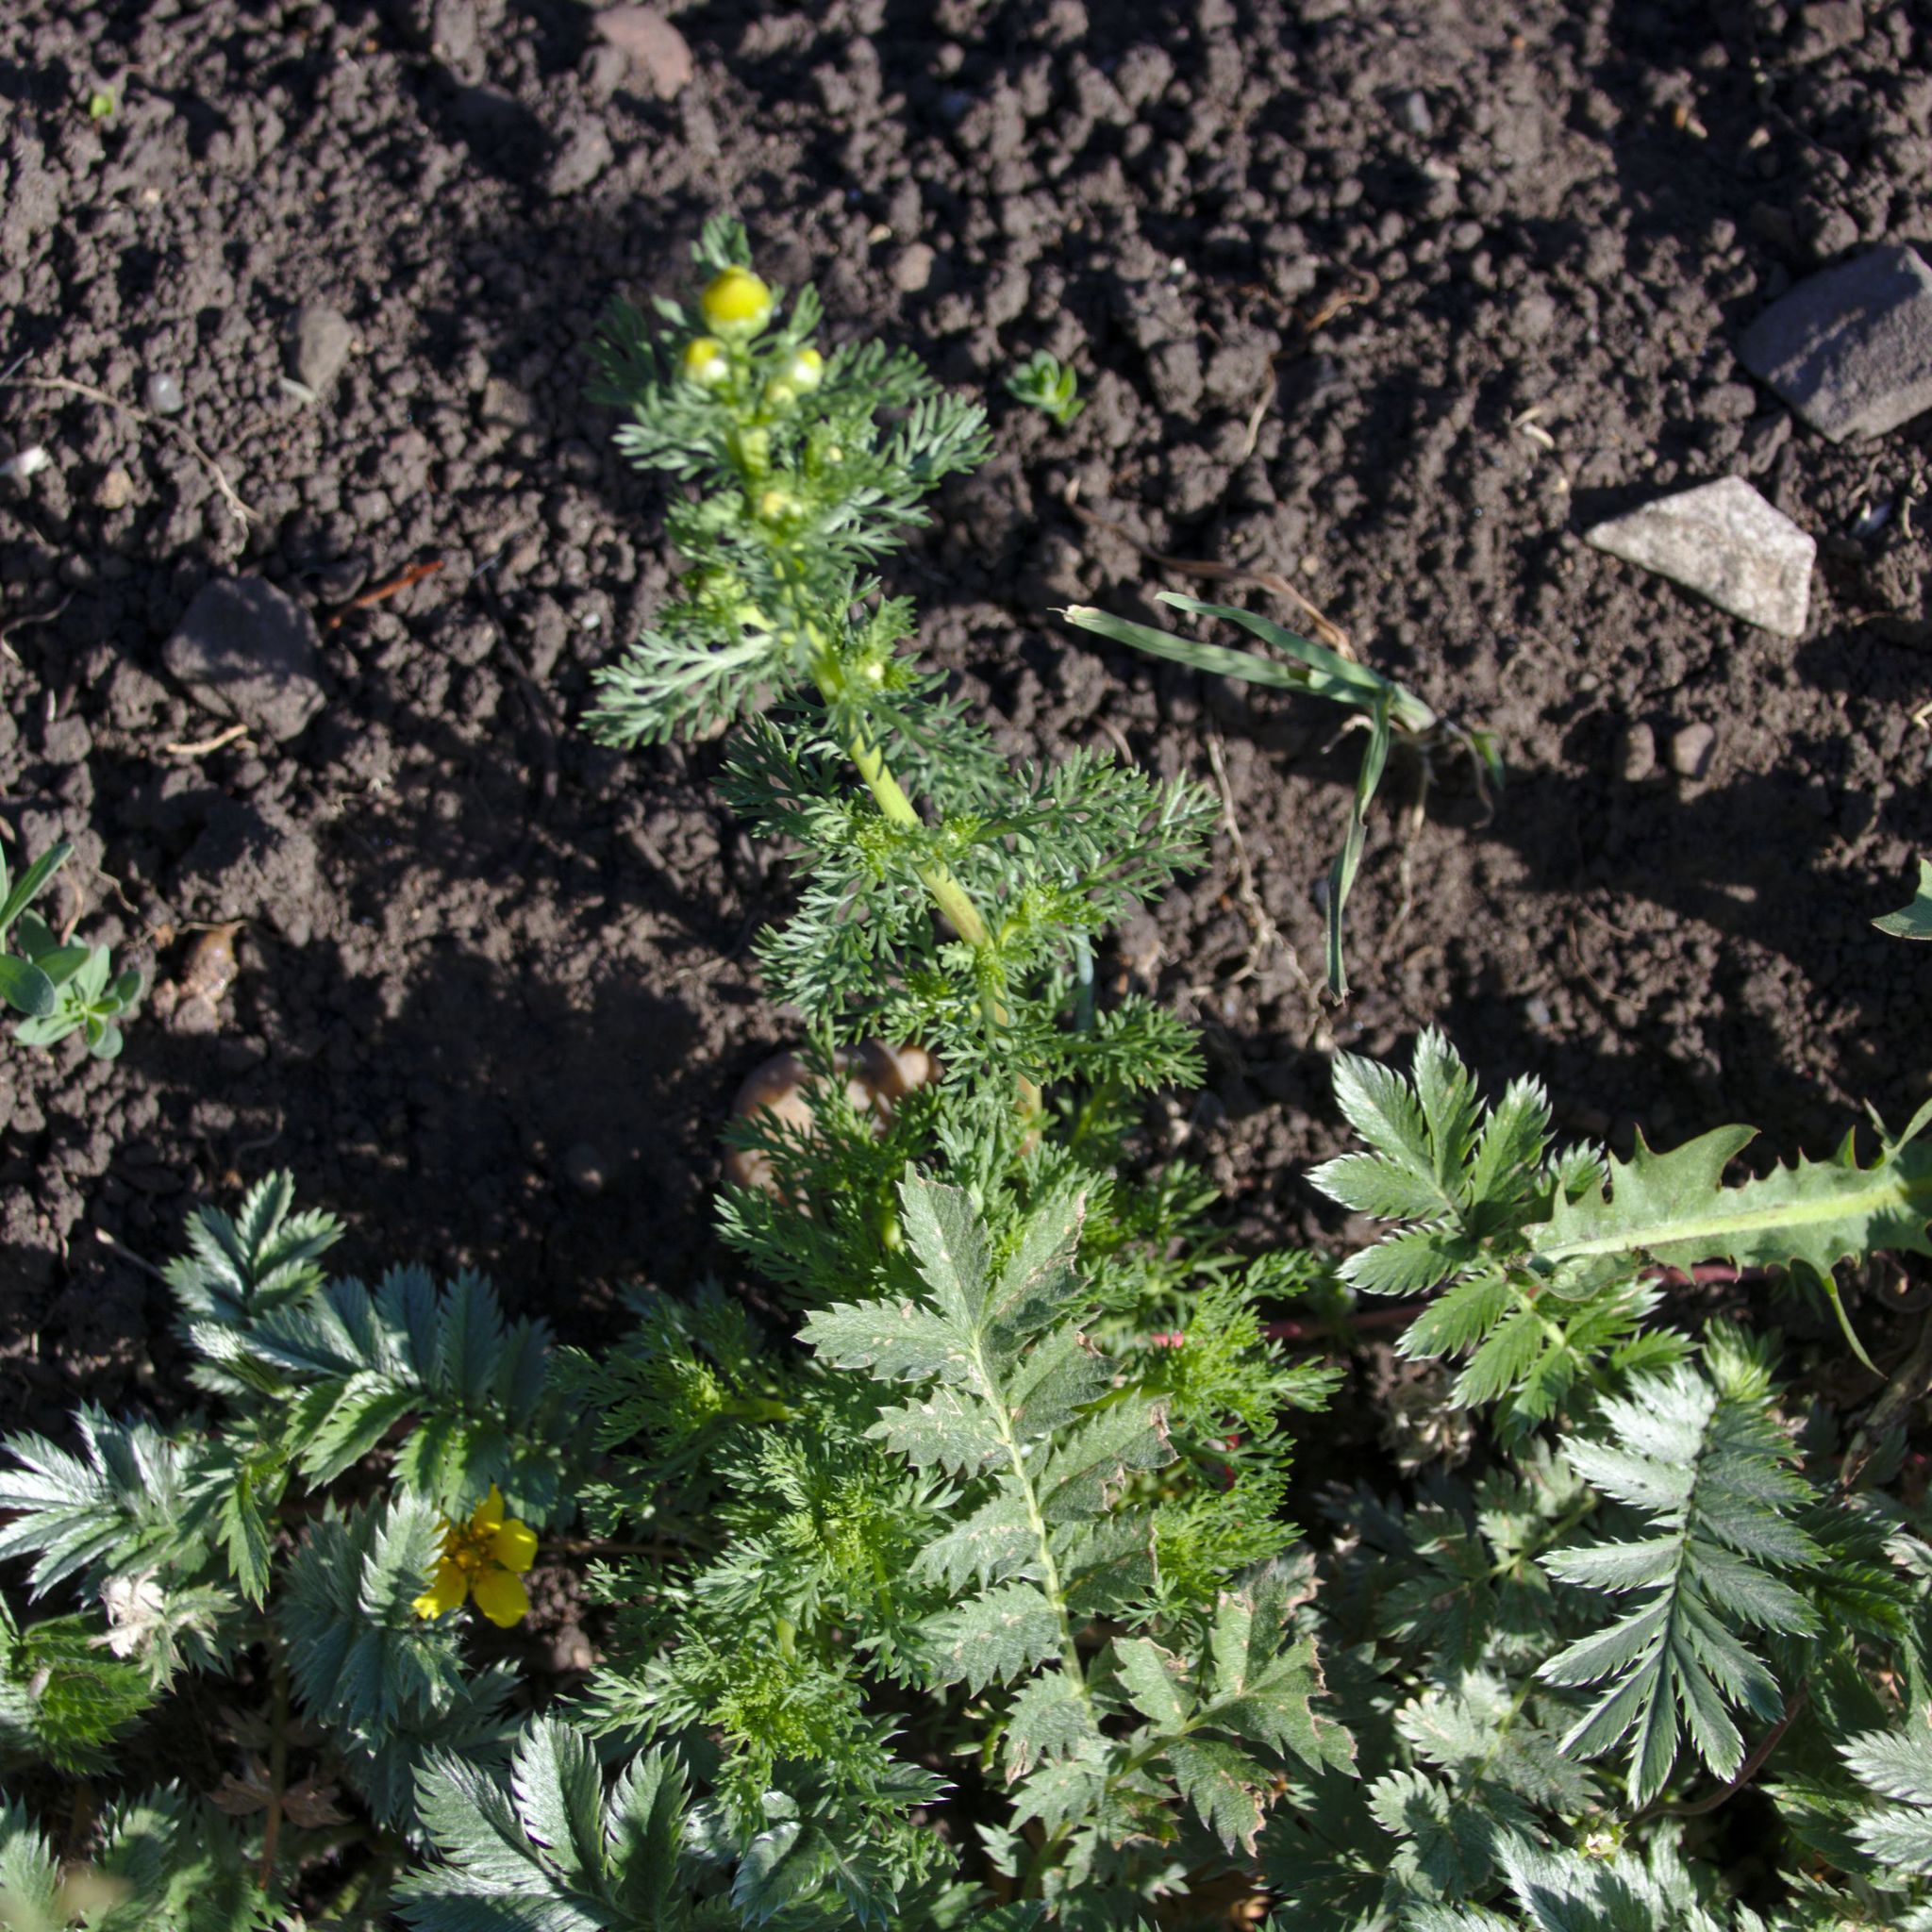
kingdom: Plantae
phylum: Tracheophyta
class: Magnoliopsida
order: Asterales
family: Asteraceae
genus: Matricaria
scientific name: Matricaria discoidea
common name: Disc mayweed
